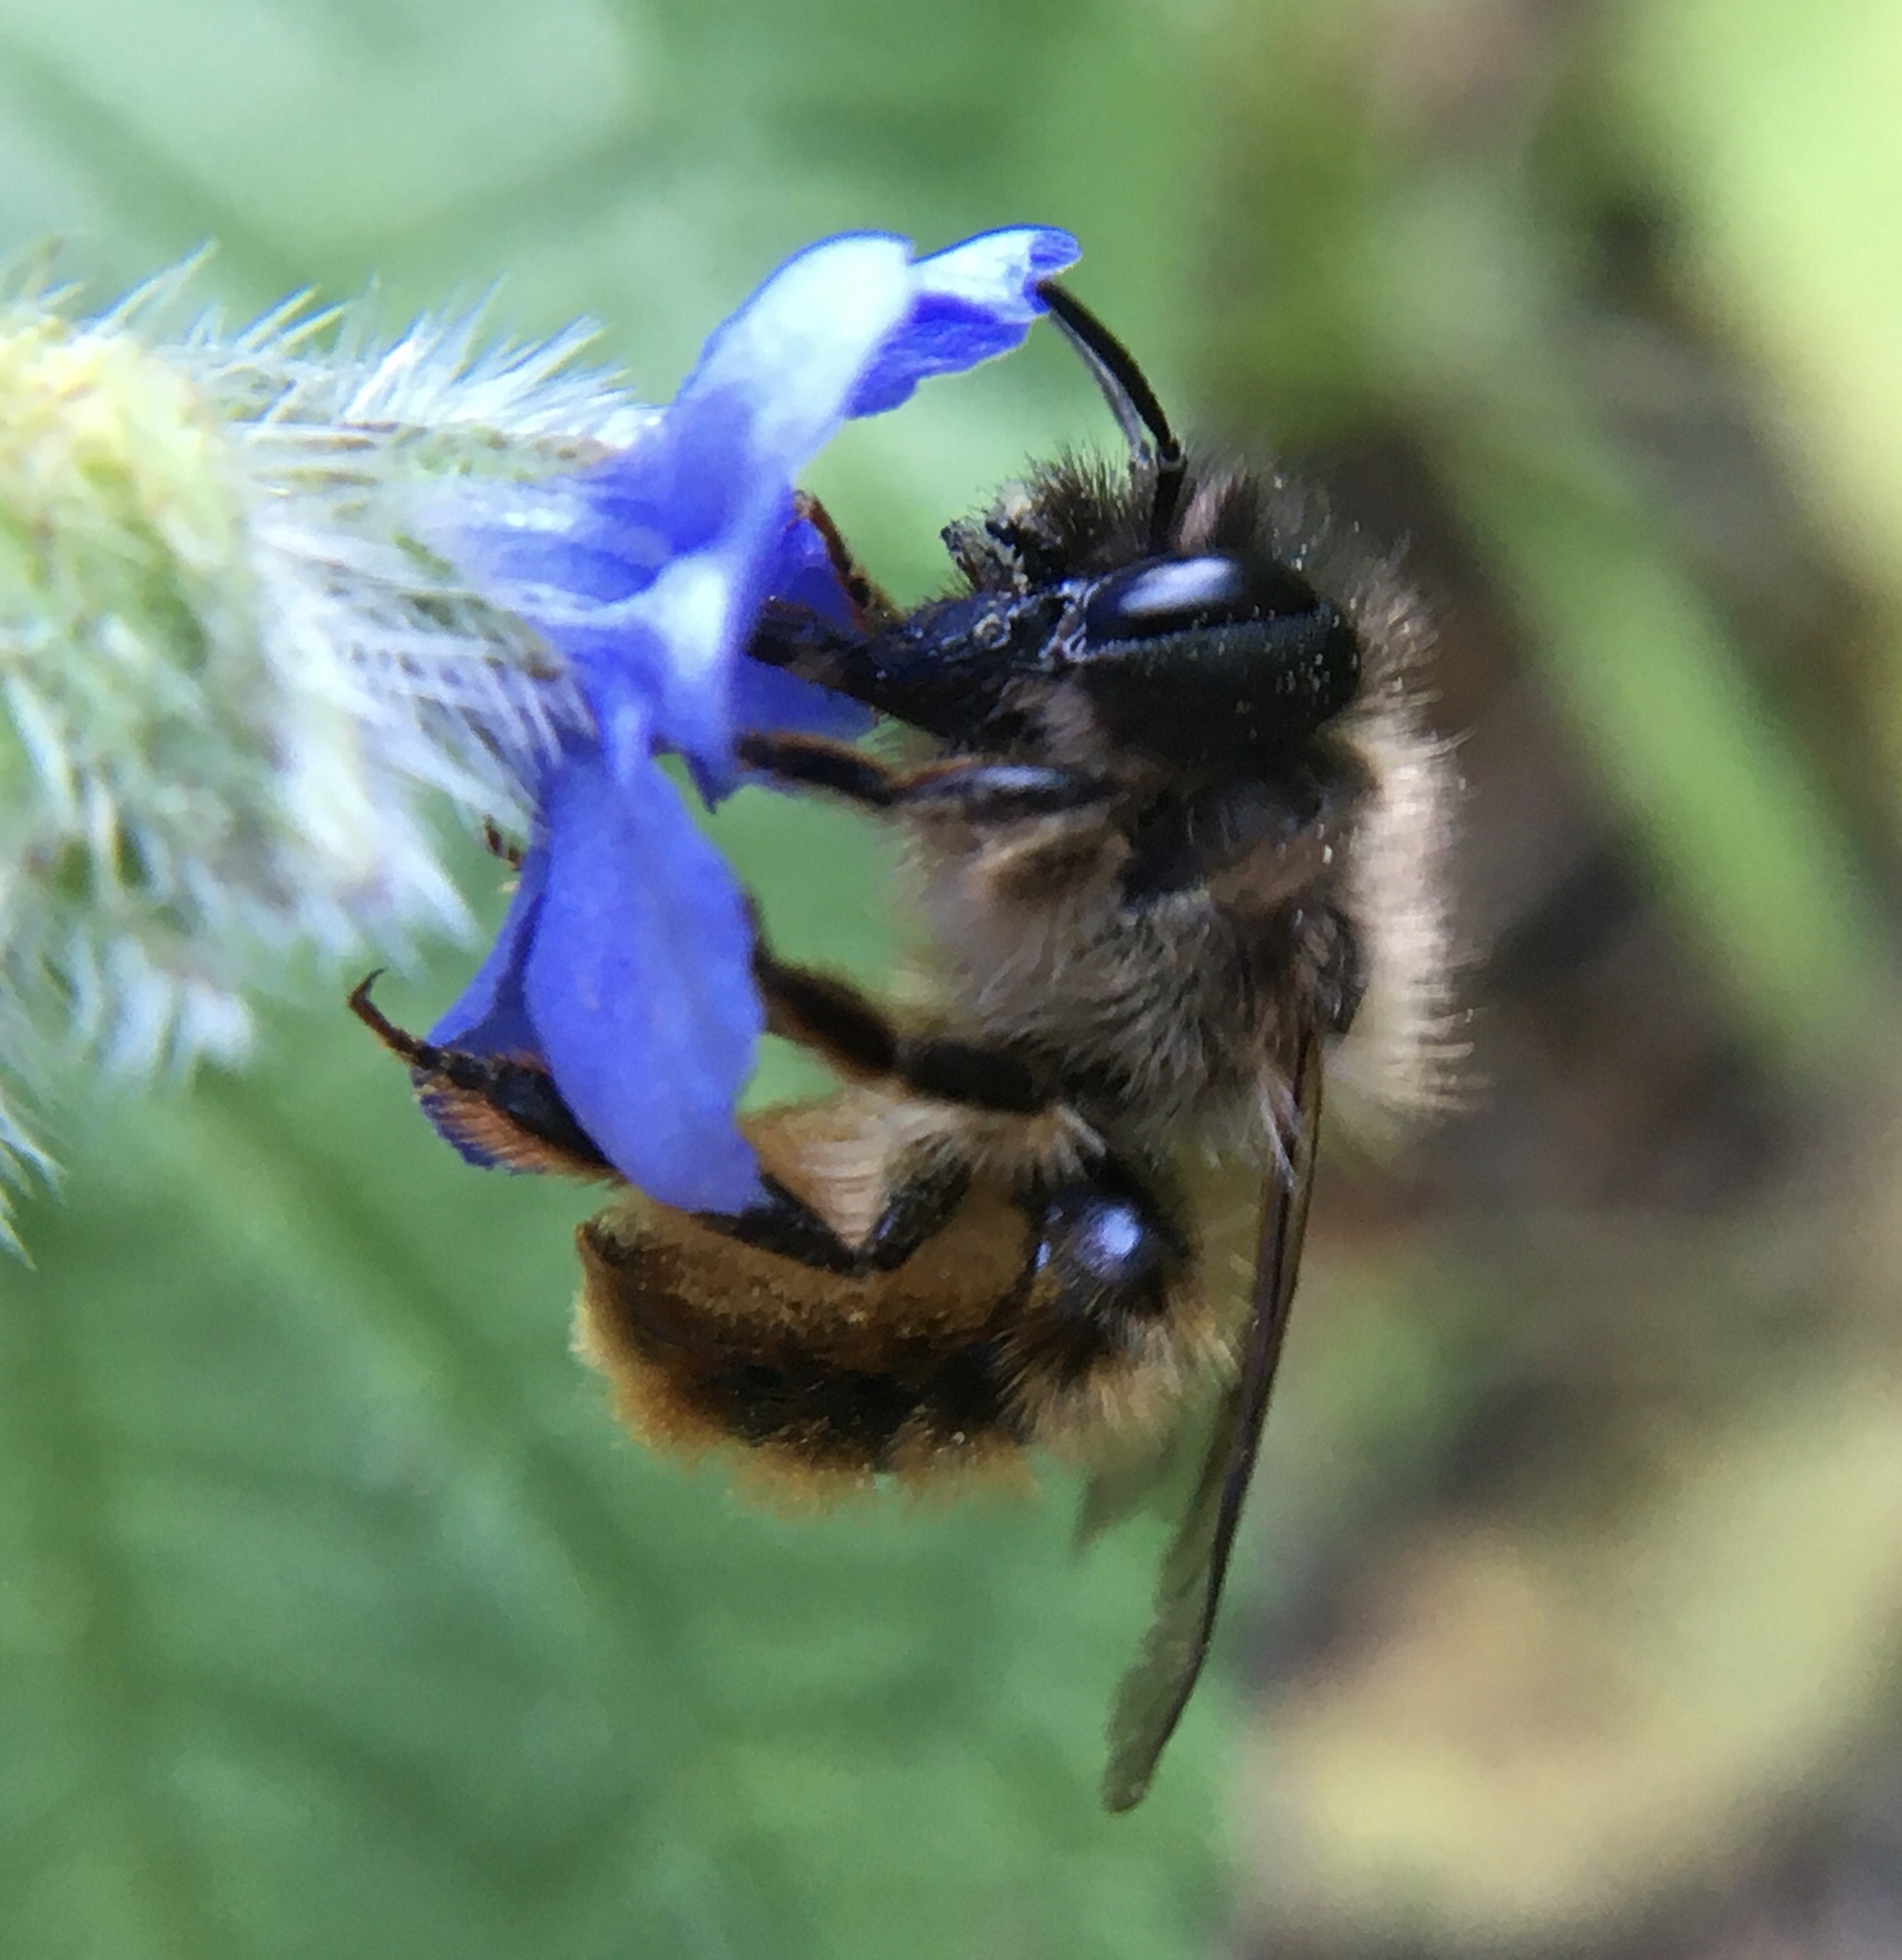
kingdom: Animalia
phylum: Arthropoda
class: Insecta
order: Hymenoptera
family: Megachilidae
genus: Osmia
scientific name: Osmia bicornis
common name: Red mason bee
